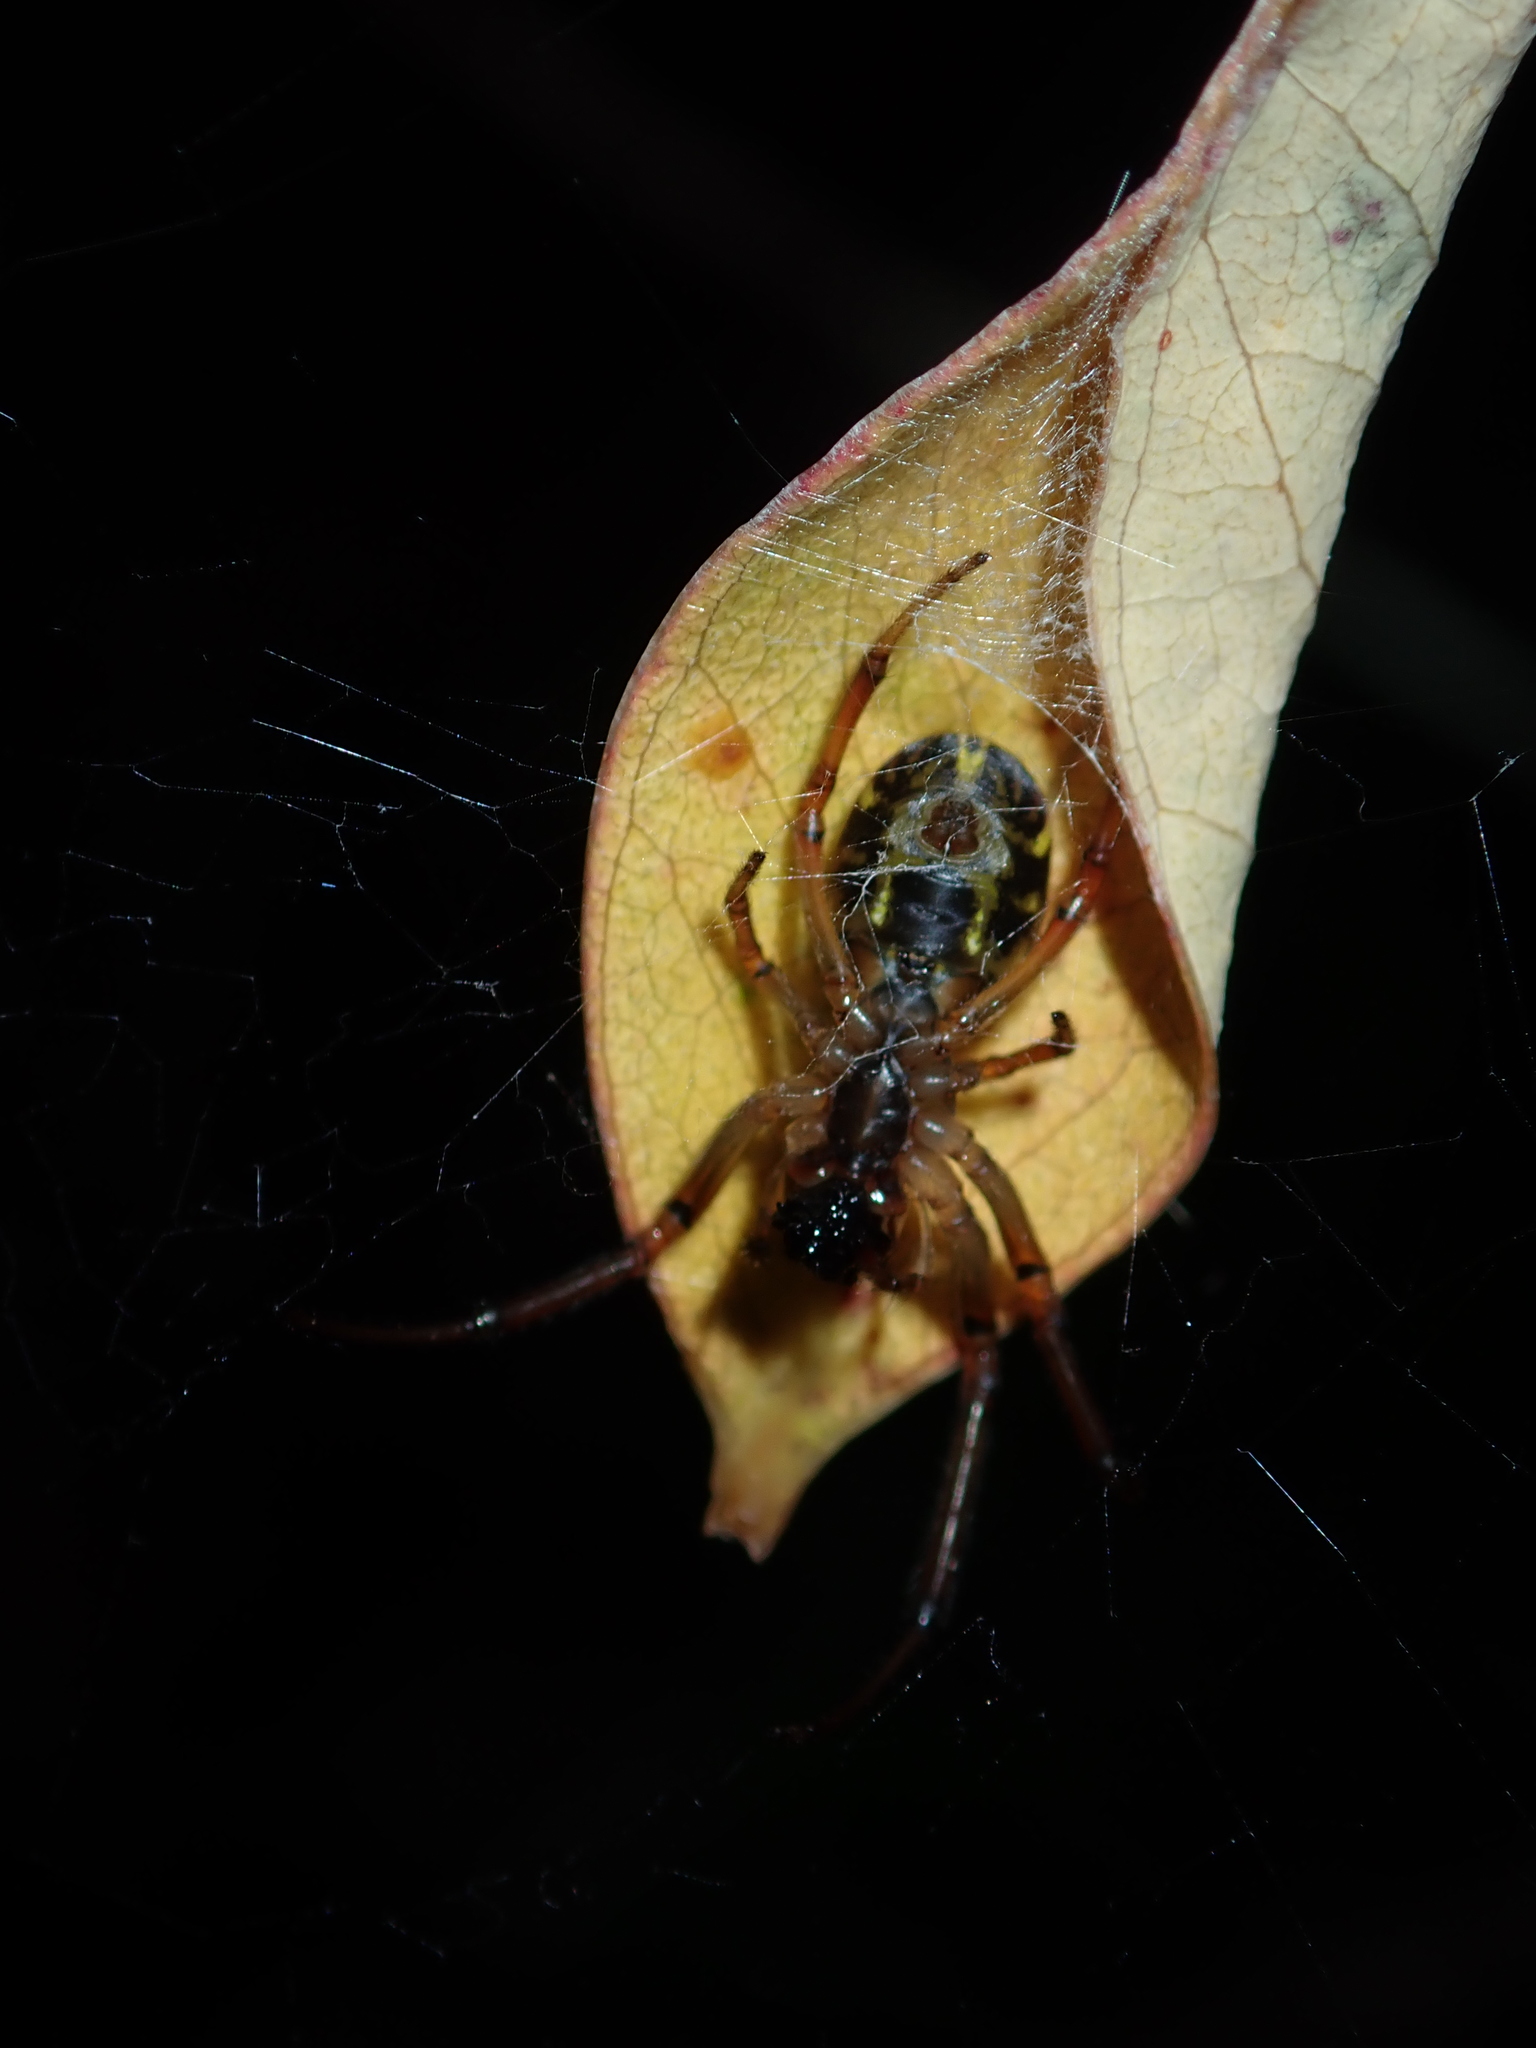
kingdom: Animalia
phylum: Arthropoda
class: Arachnida
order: Araneae
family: Araneidae
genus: Phonognatha
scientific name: Phonognatha graeffei
